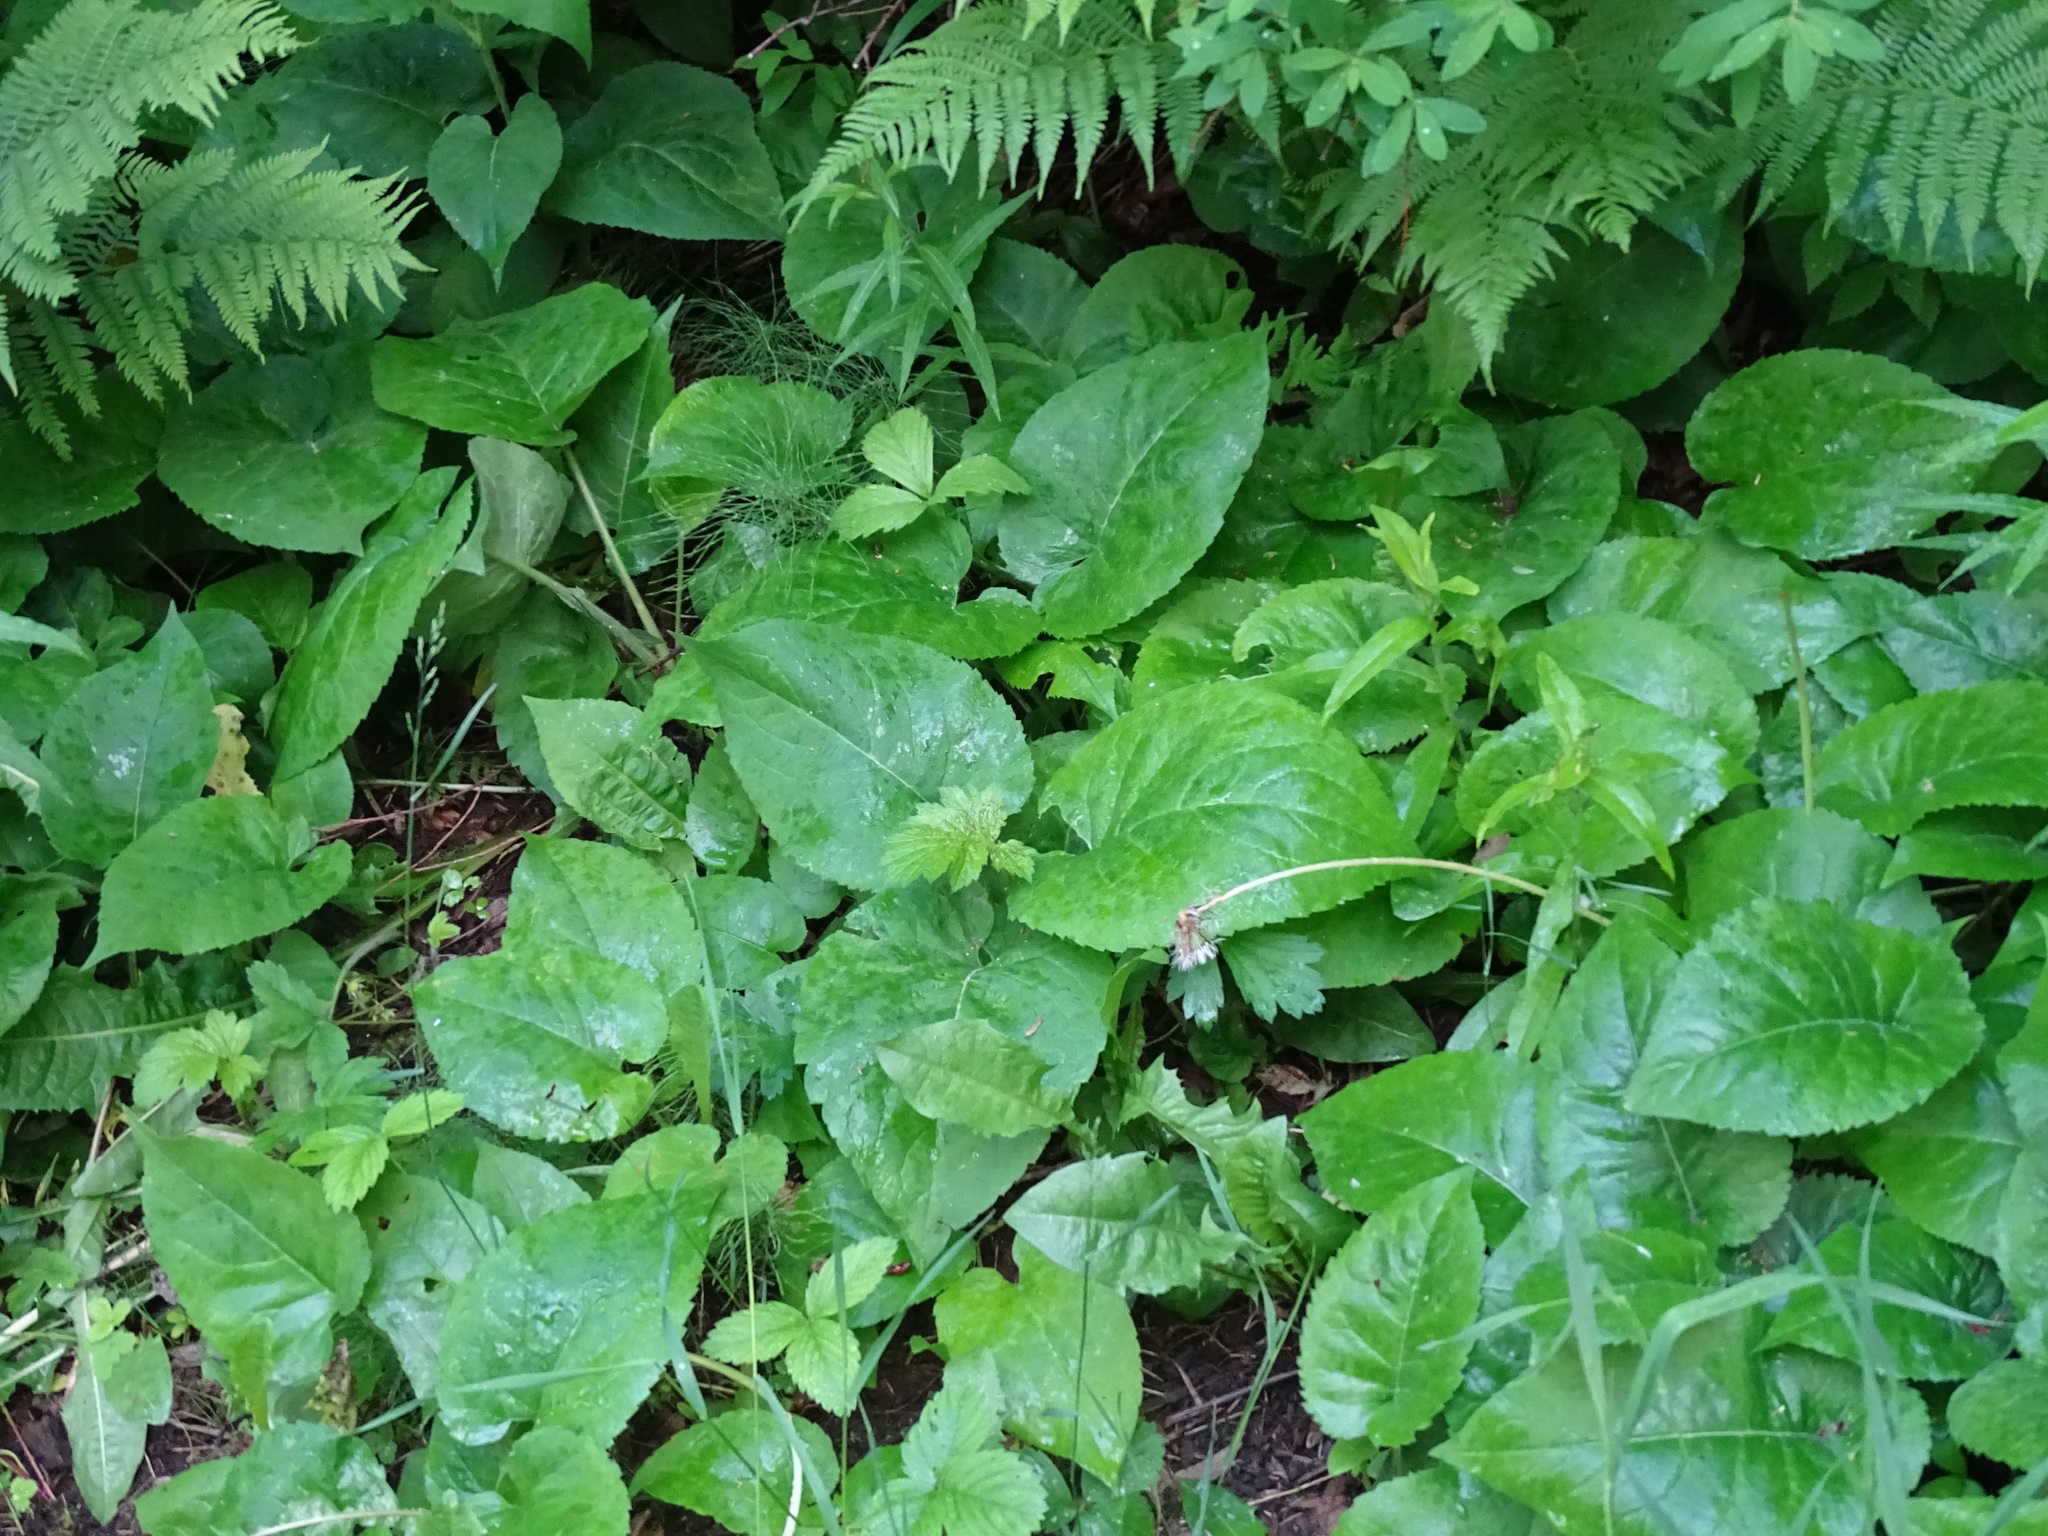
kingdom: Plantae
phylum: Tracheophyta
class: Magnoliopsida
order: Asterales
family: Asteraceae
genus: Eurybia
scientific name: Eurybia macrophylla
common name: Big-leaved aster
